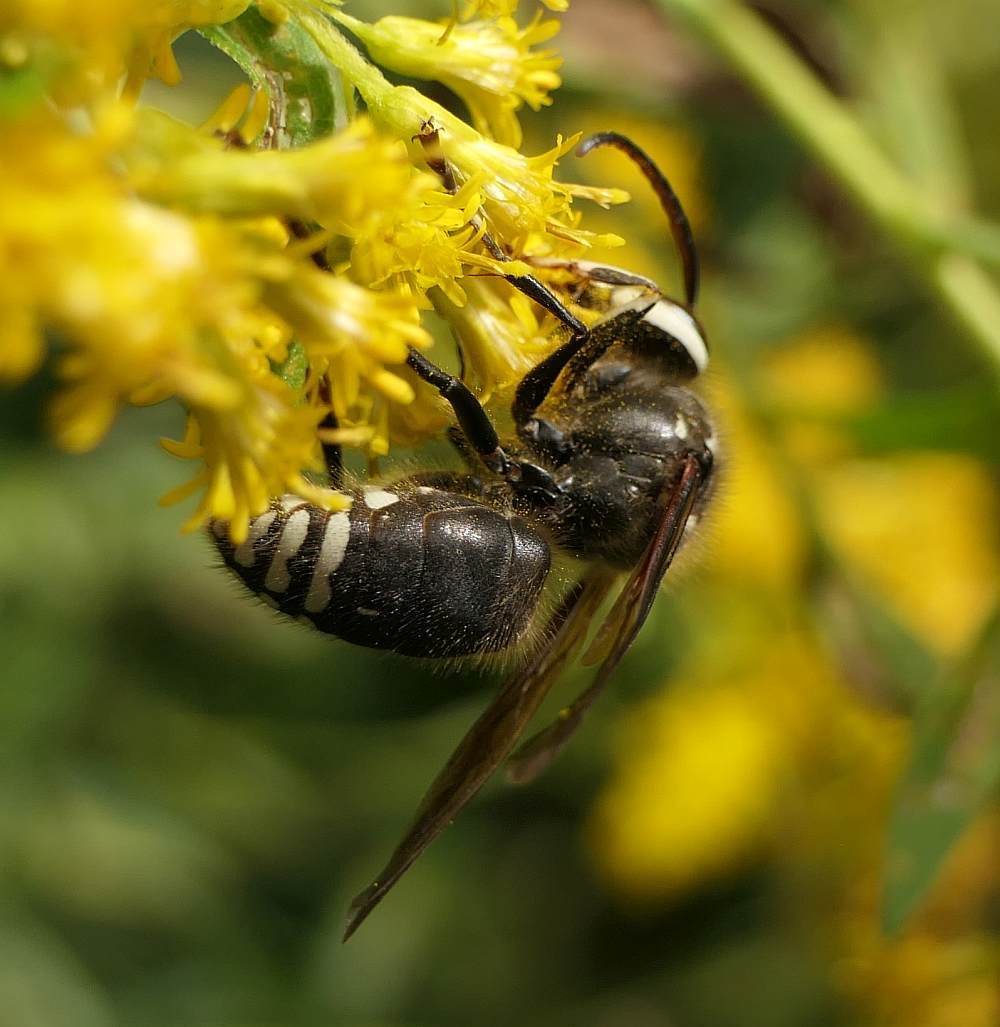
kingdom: Animalia
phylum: Arthropoda
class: Insecta
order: Hymenoptera
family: Vespidae
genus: Dolichovespula
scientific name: Dolichovespula maculata
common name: Bald-faced hornet
